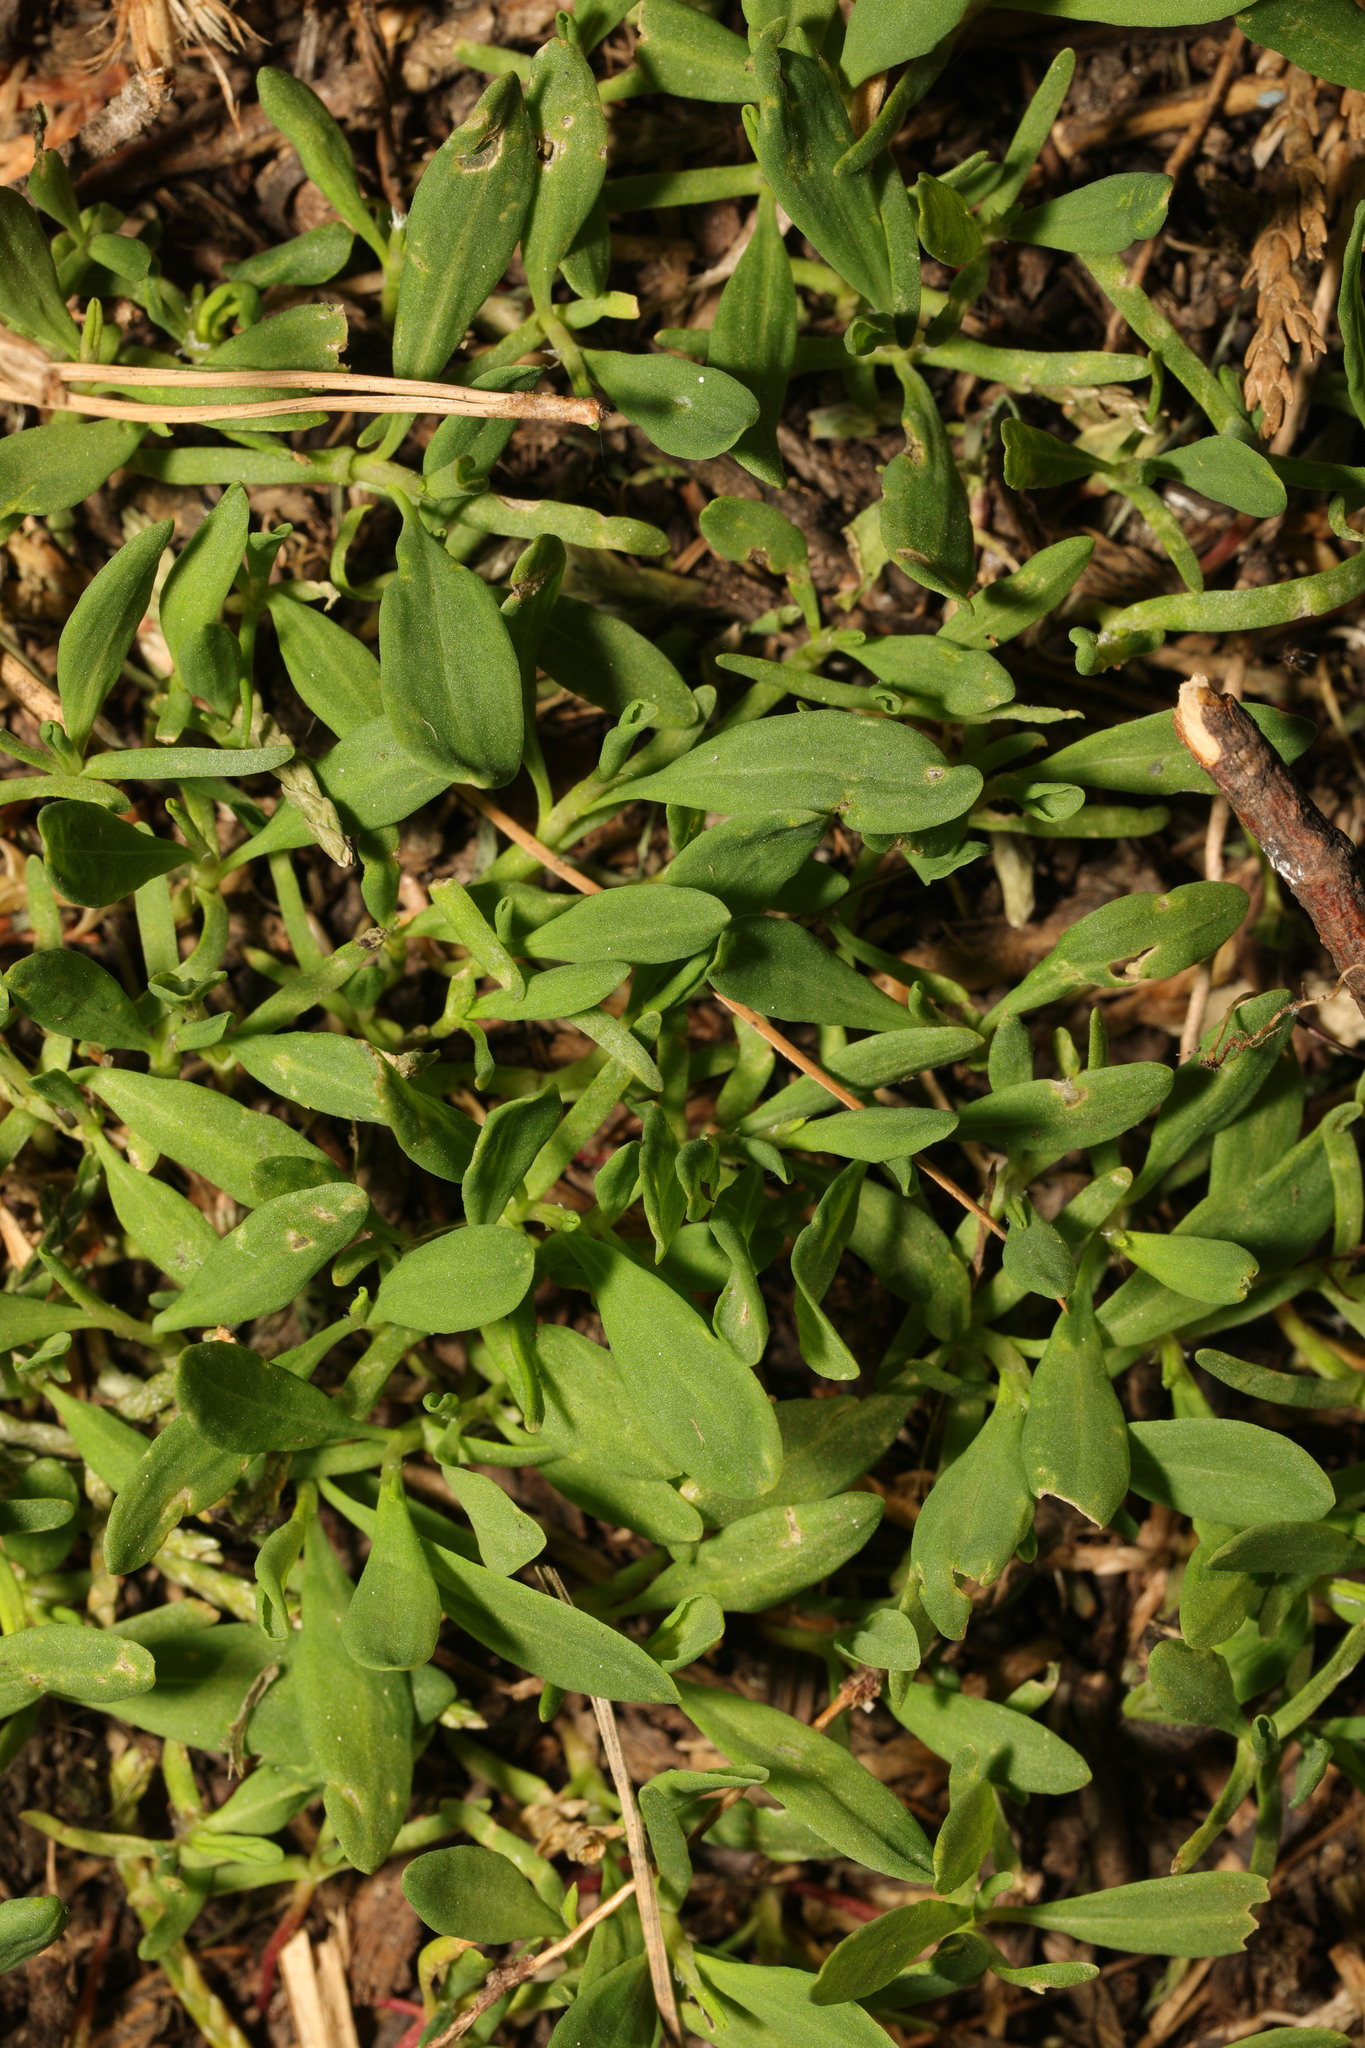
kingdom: Plantae
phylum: Tracheophyta
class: Magnoliopsida
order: Caryophyllales
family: Polygonaceae
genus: Polygonum
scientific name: Polygonum aviculare
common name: Prostrate knotweed
